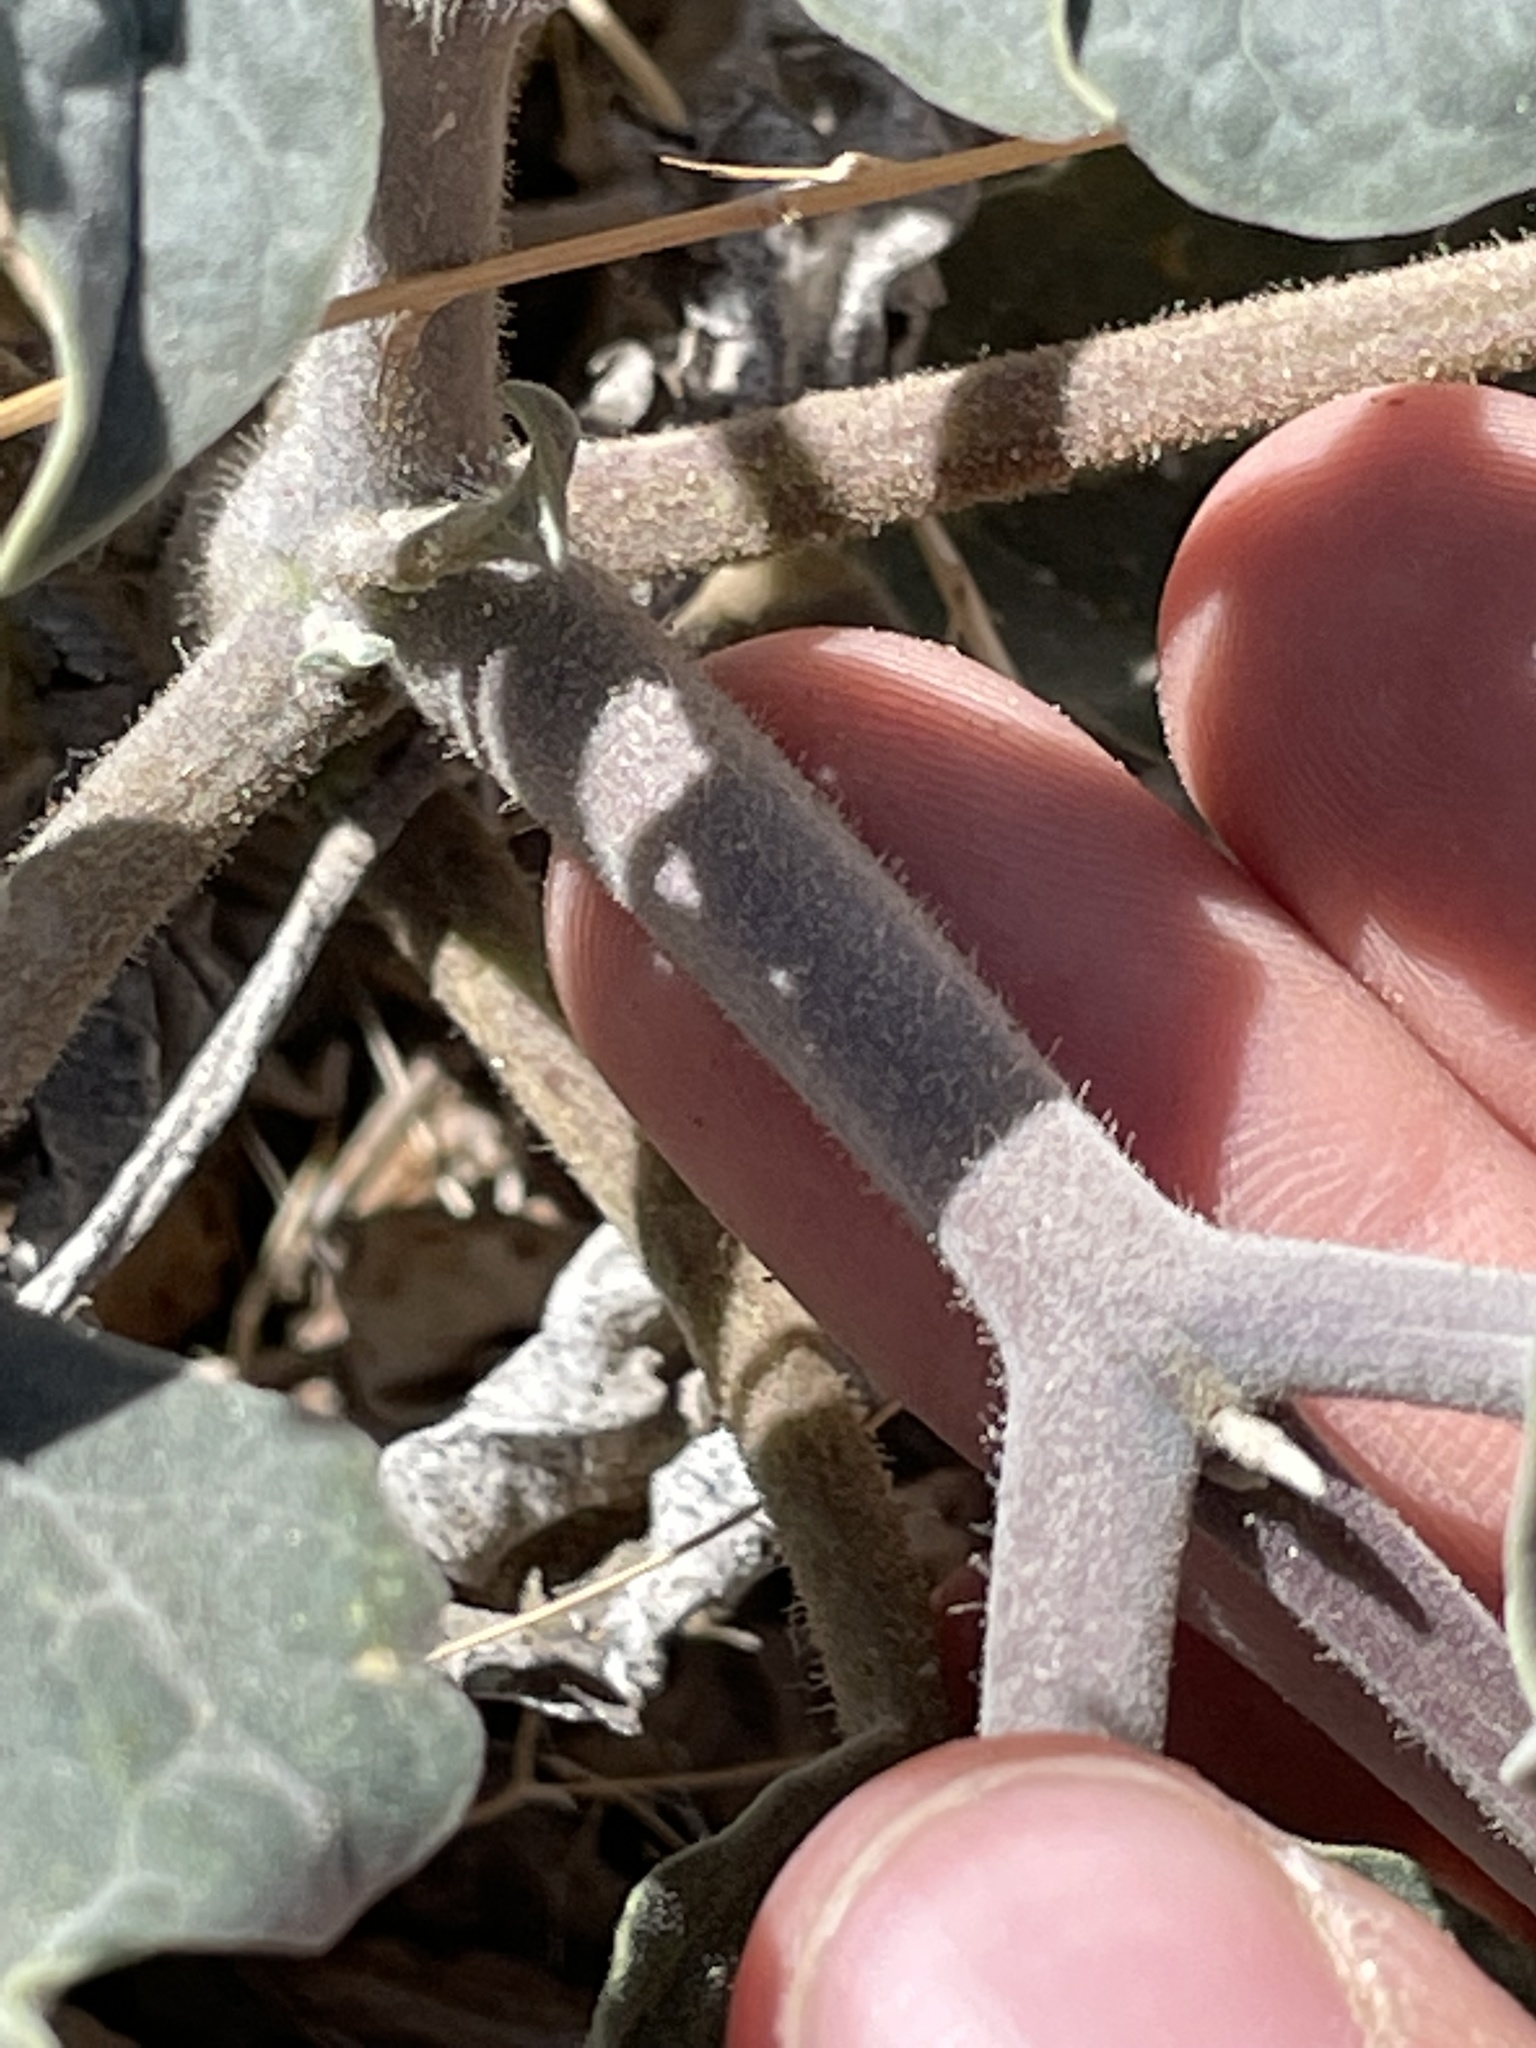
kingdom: Plantae
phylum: Tracheophyta
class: Magnoliopsida
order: Solanales
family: Solanaceae
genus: Datura
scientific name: Datura wrightii
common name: Sacred thorn-apple
